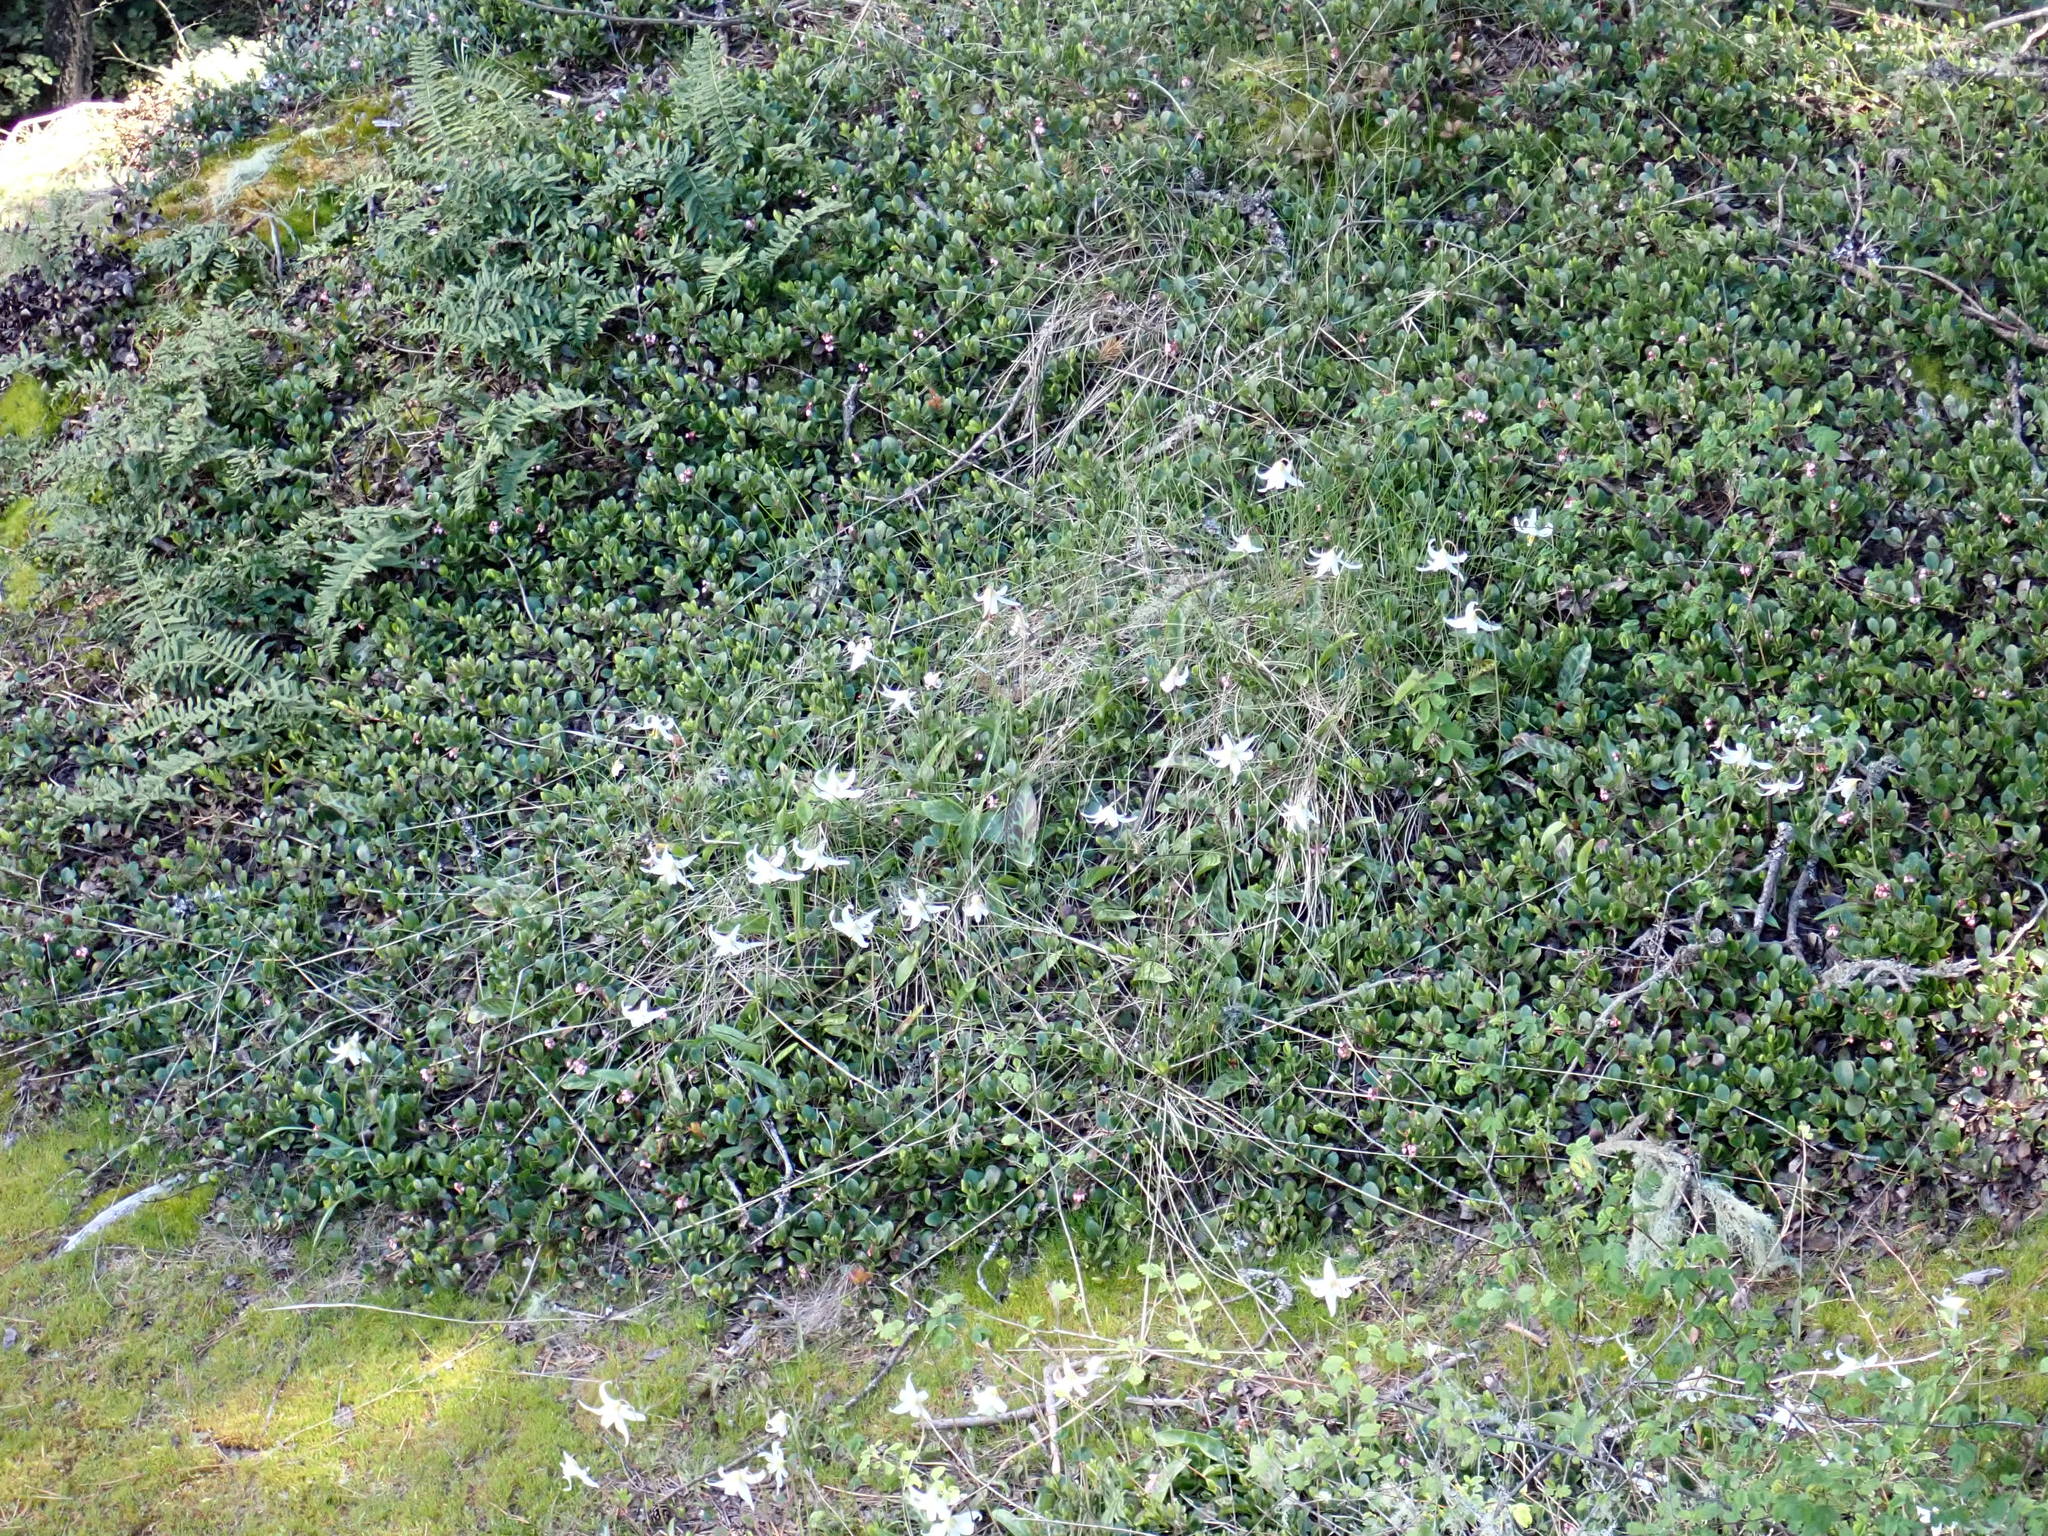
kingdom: Plantae
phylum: Tracheophyta
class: Liliopsida
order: Liliales
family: Liliaceae
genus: Erythronium
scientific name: Erythronium oregonum
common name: Giant adder's-tongue
